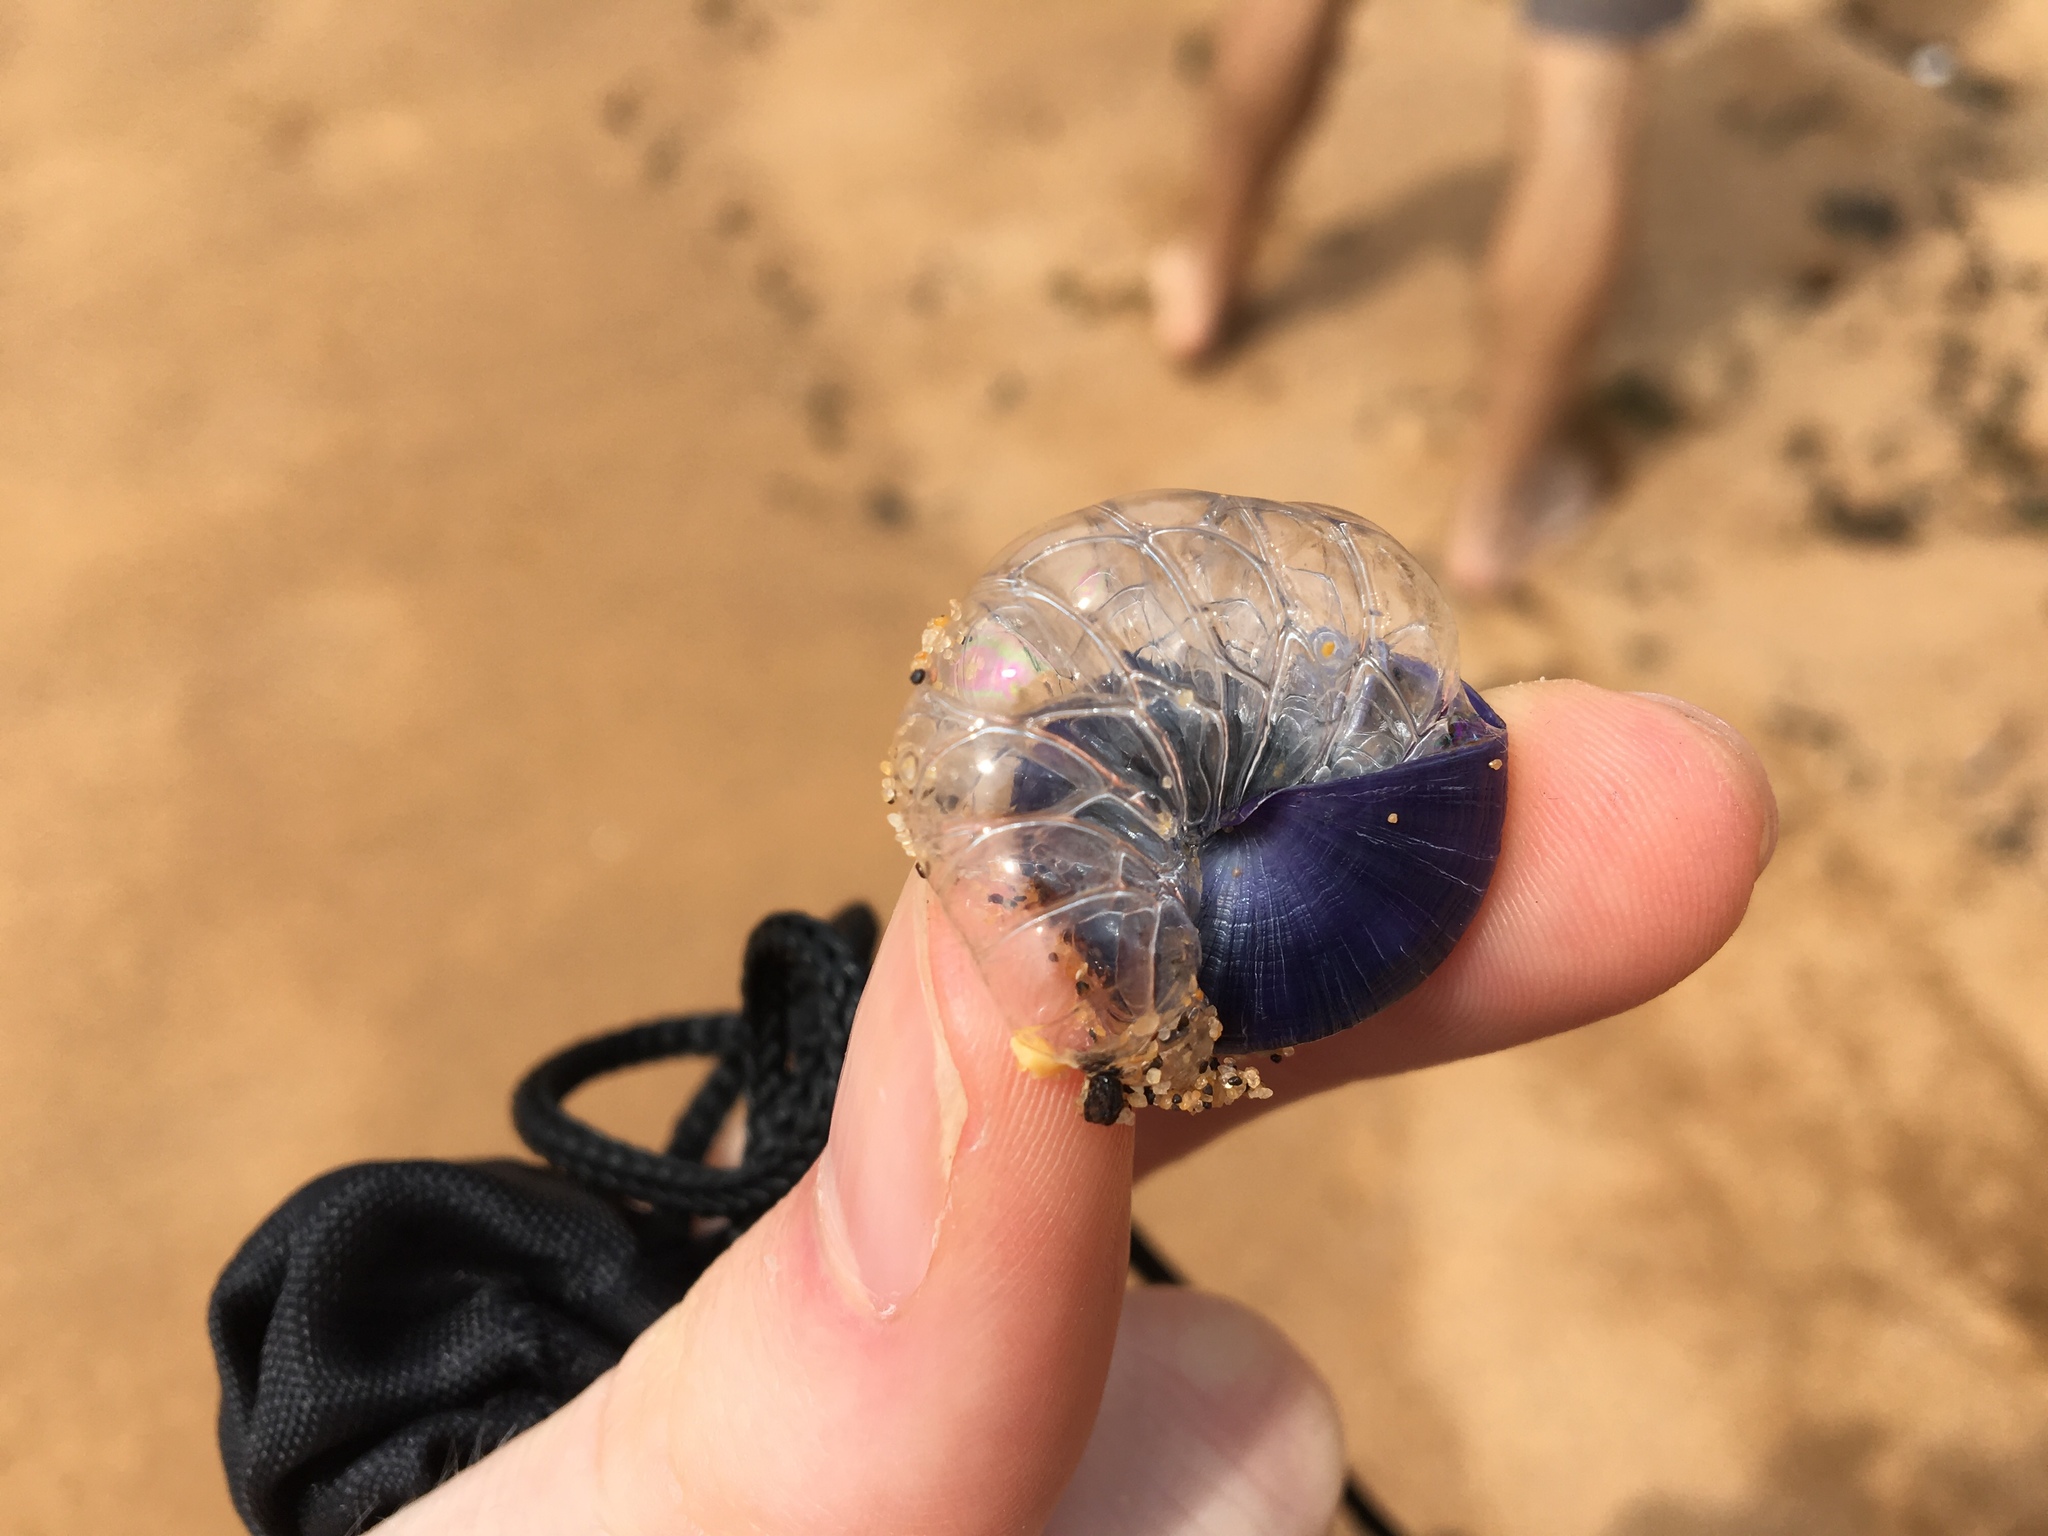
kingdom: Animalia
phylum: Mollusca
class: Gastropoda
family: Epitoniidae
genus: Janthina
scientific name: Janthina janthina
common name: Common janthina
